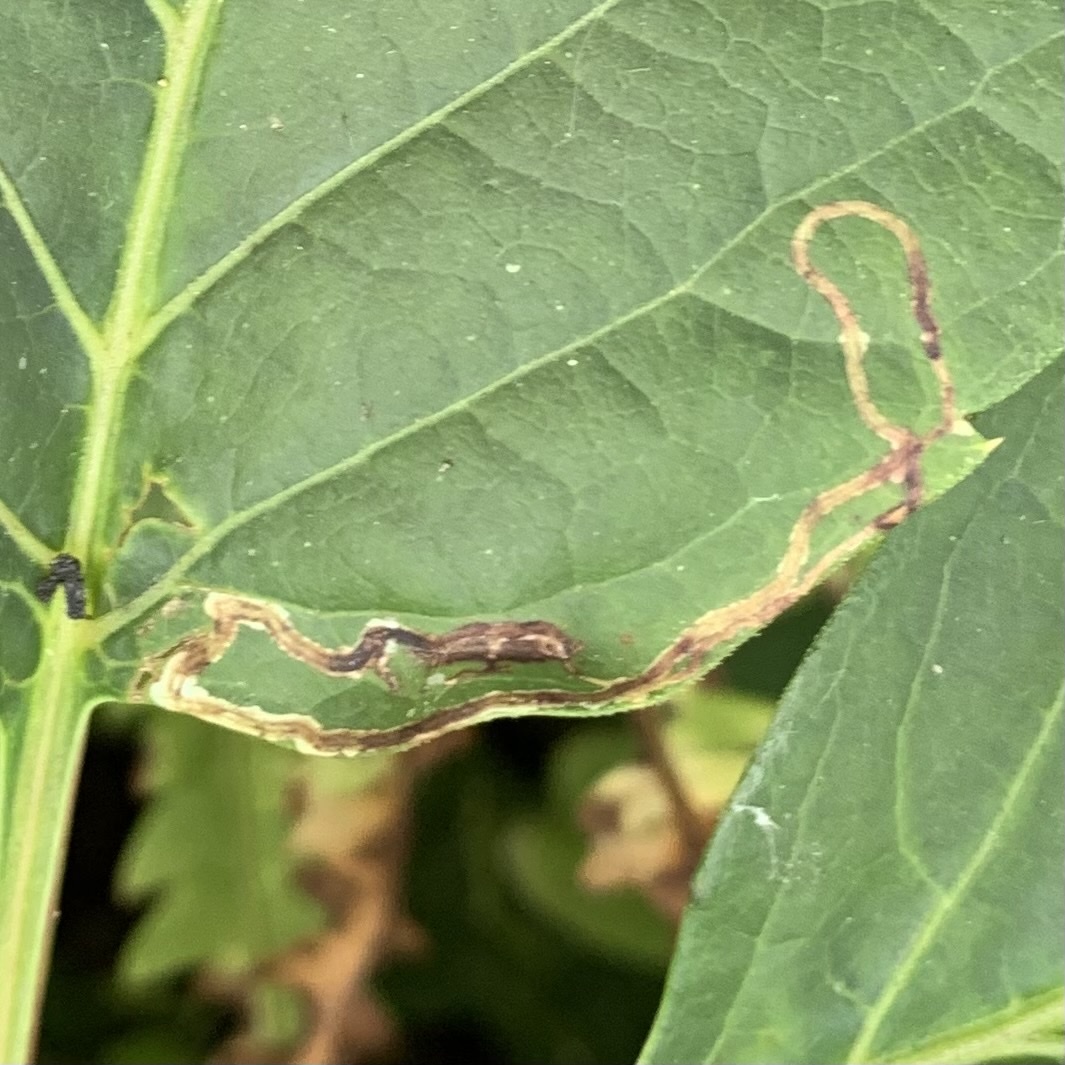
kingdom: Animalia
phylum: Arthropoda
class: Insecta
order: Lepidoptera
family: Gracillariidae
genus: Phyllocnistis
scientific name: Phyllocnistis vitifoliella
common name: Grape leaf-miner moth
